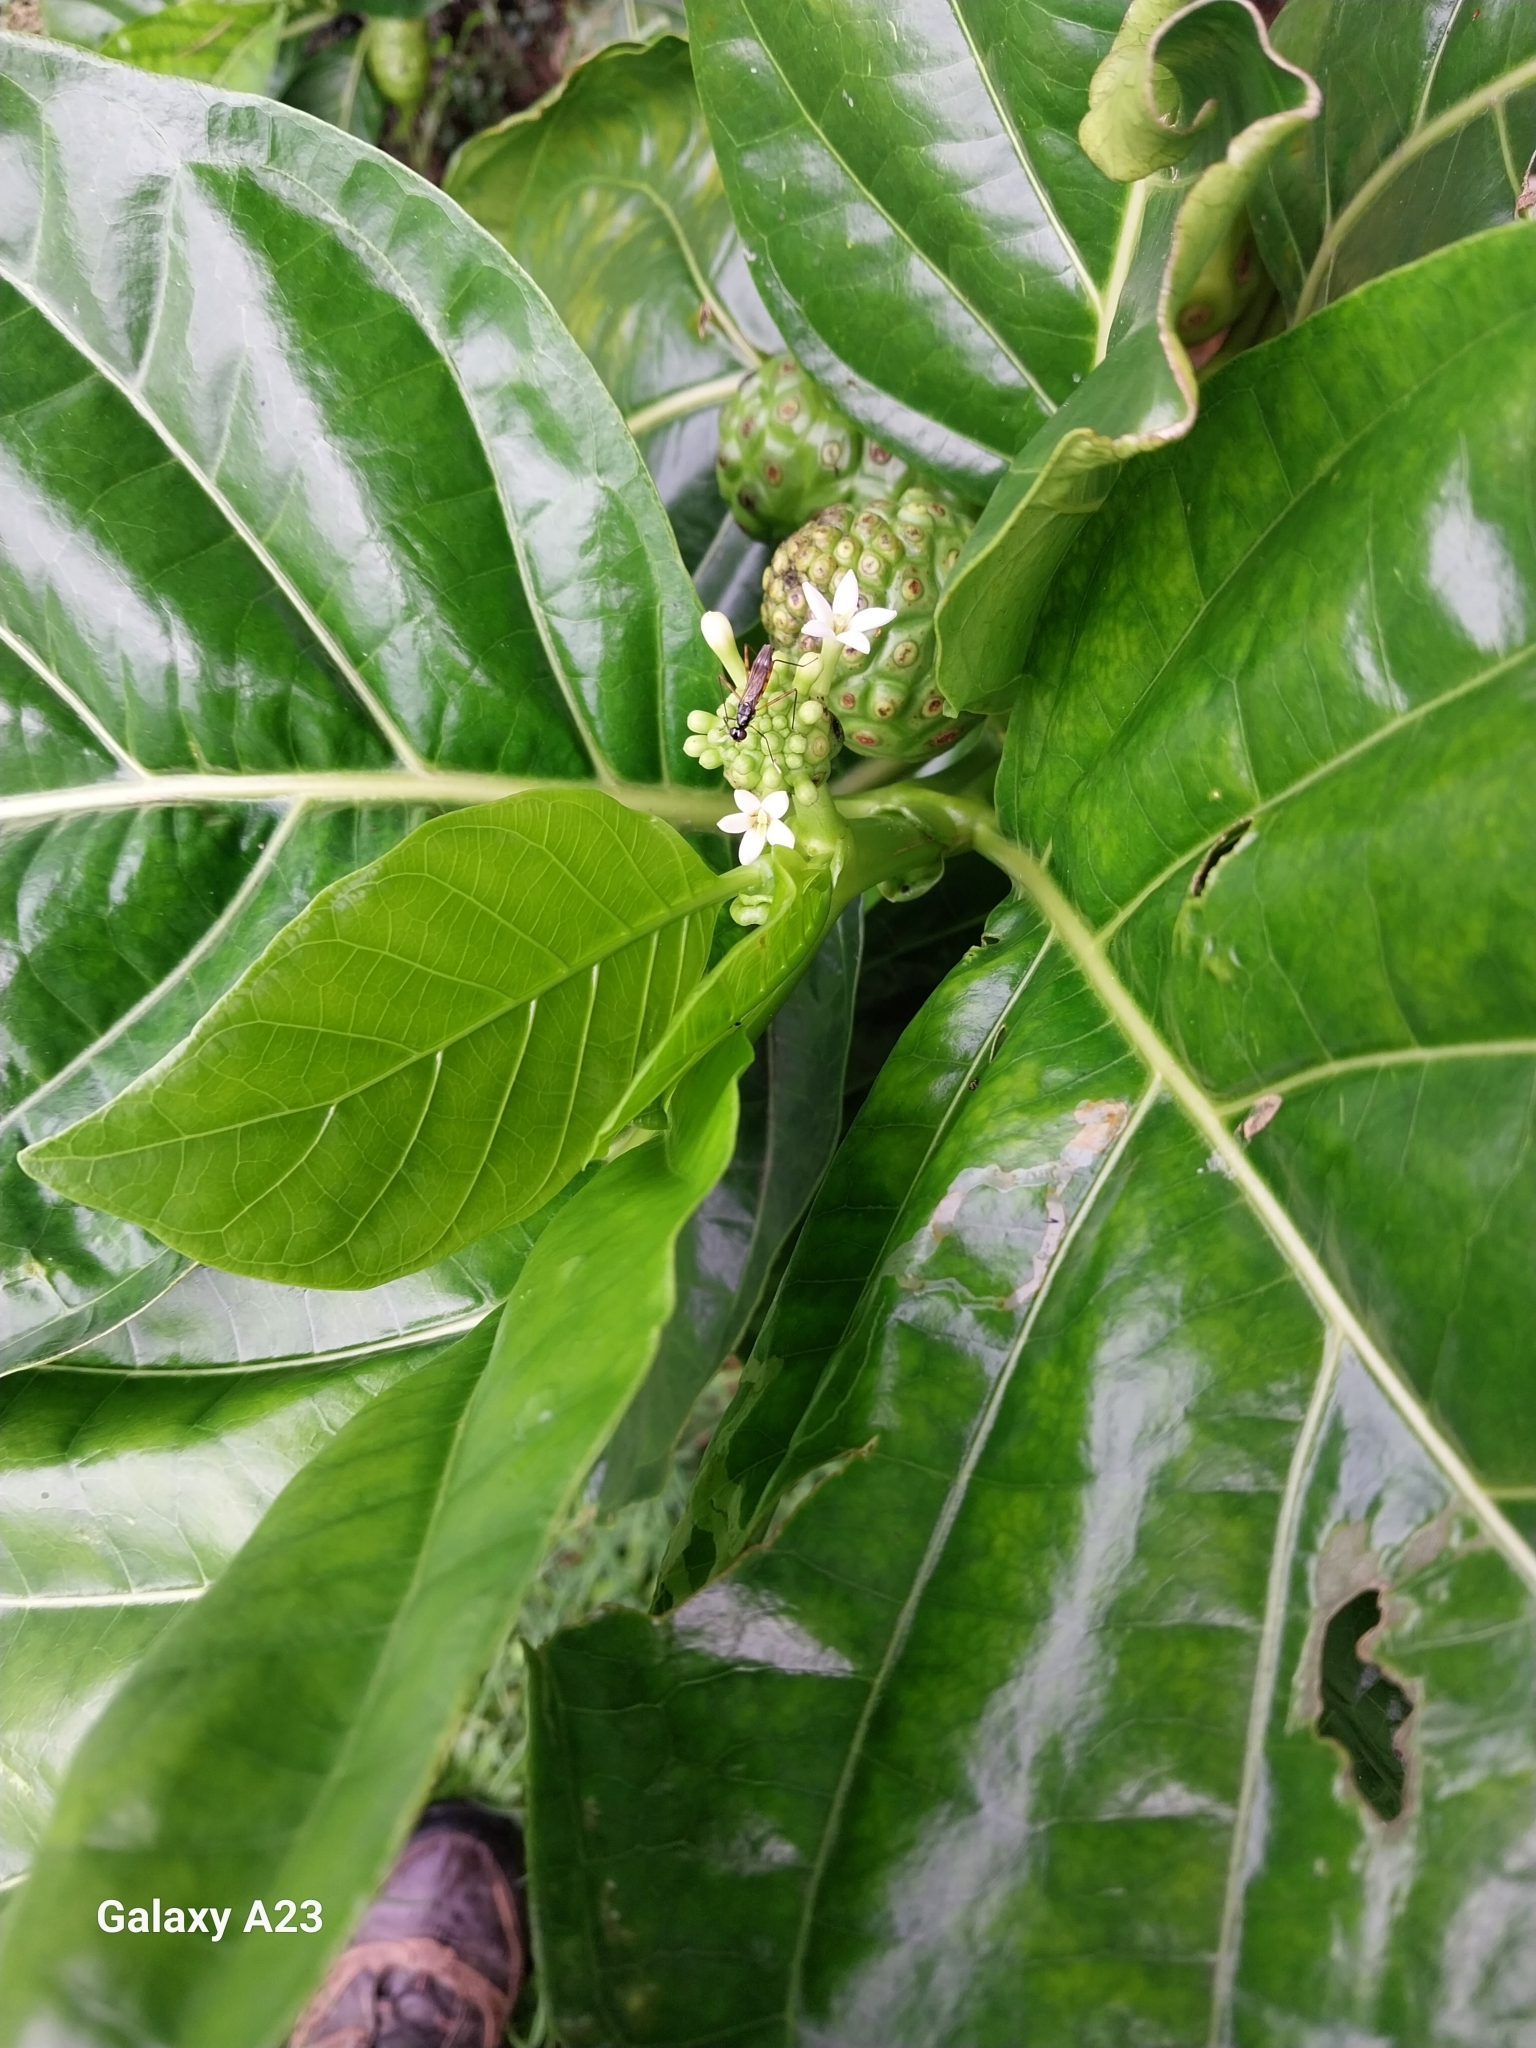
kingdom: Plantae
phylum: Tracheophyta
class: Magnoliopsida
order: Gentianales
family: Rubiaceae
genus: Morinda
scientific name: Morinda citrifolia
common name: Indian-mulberry
